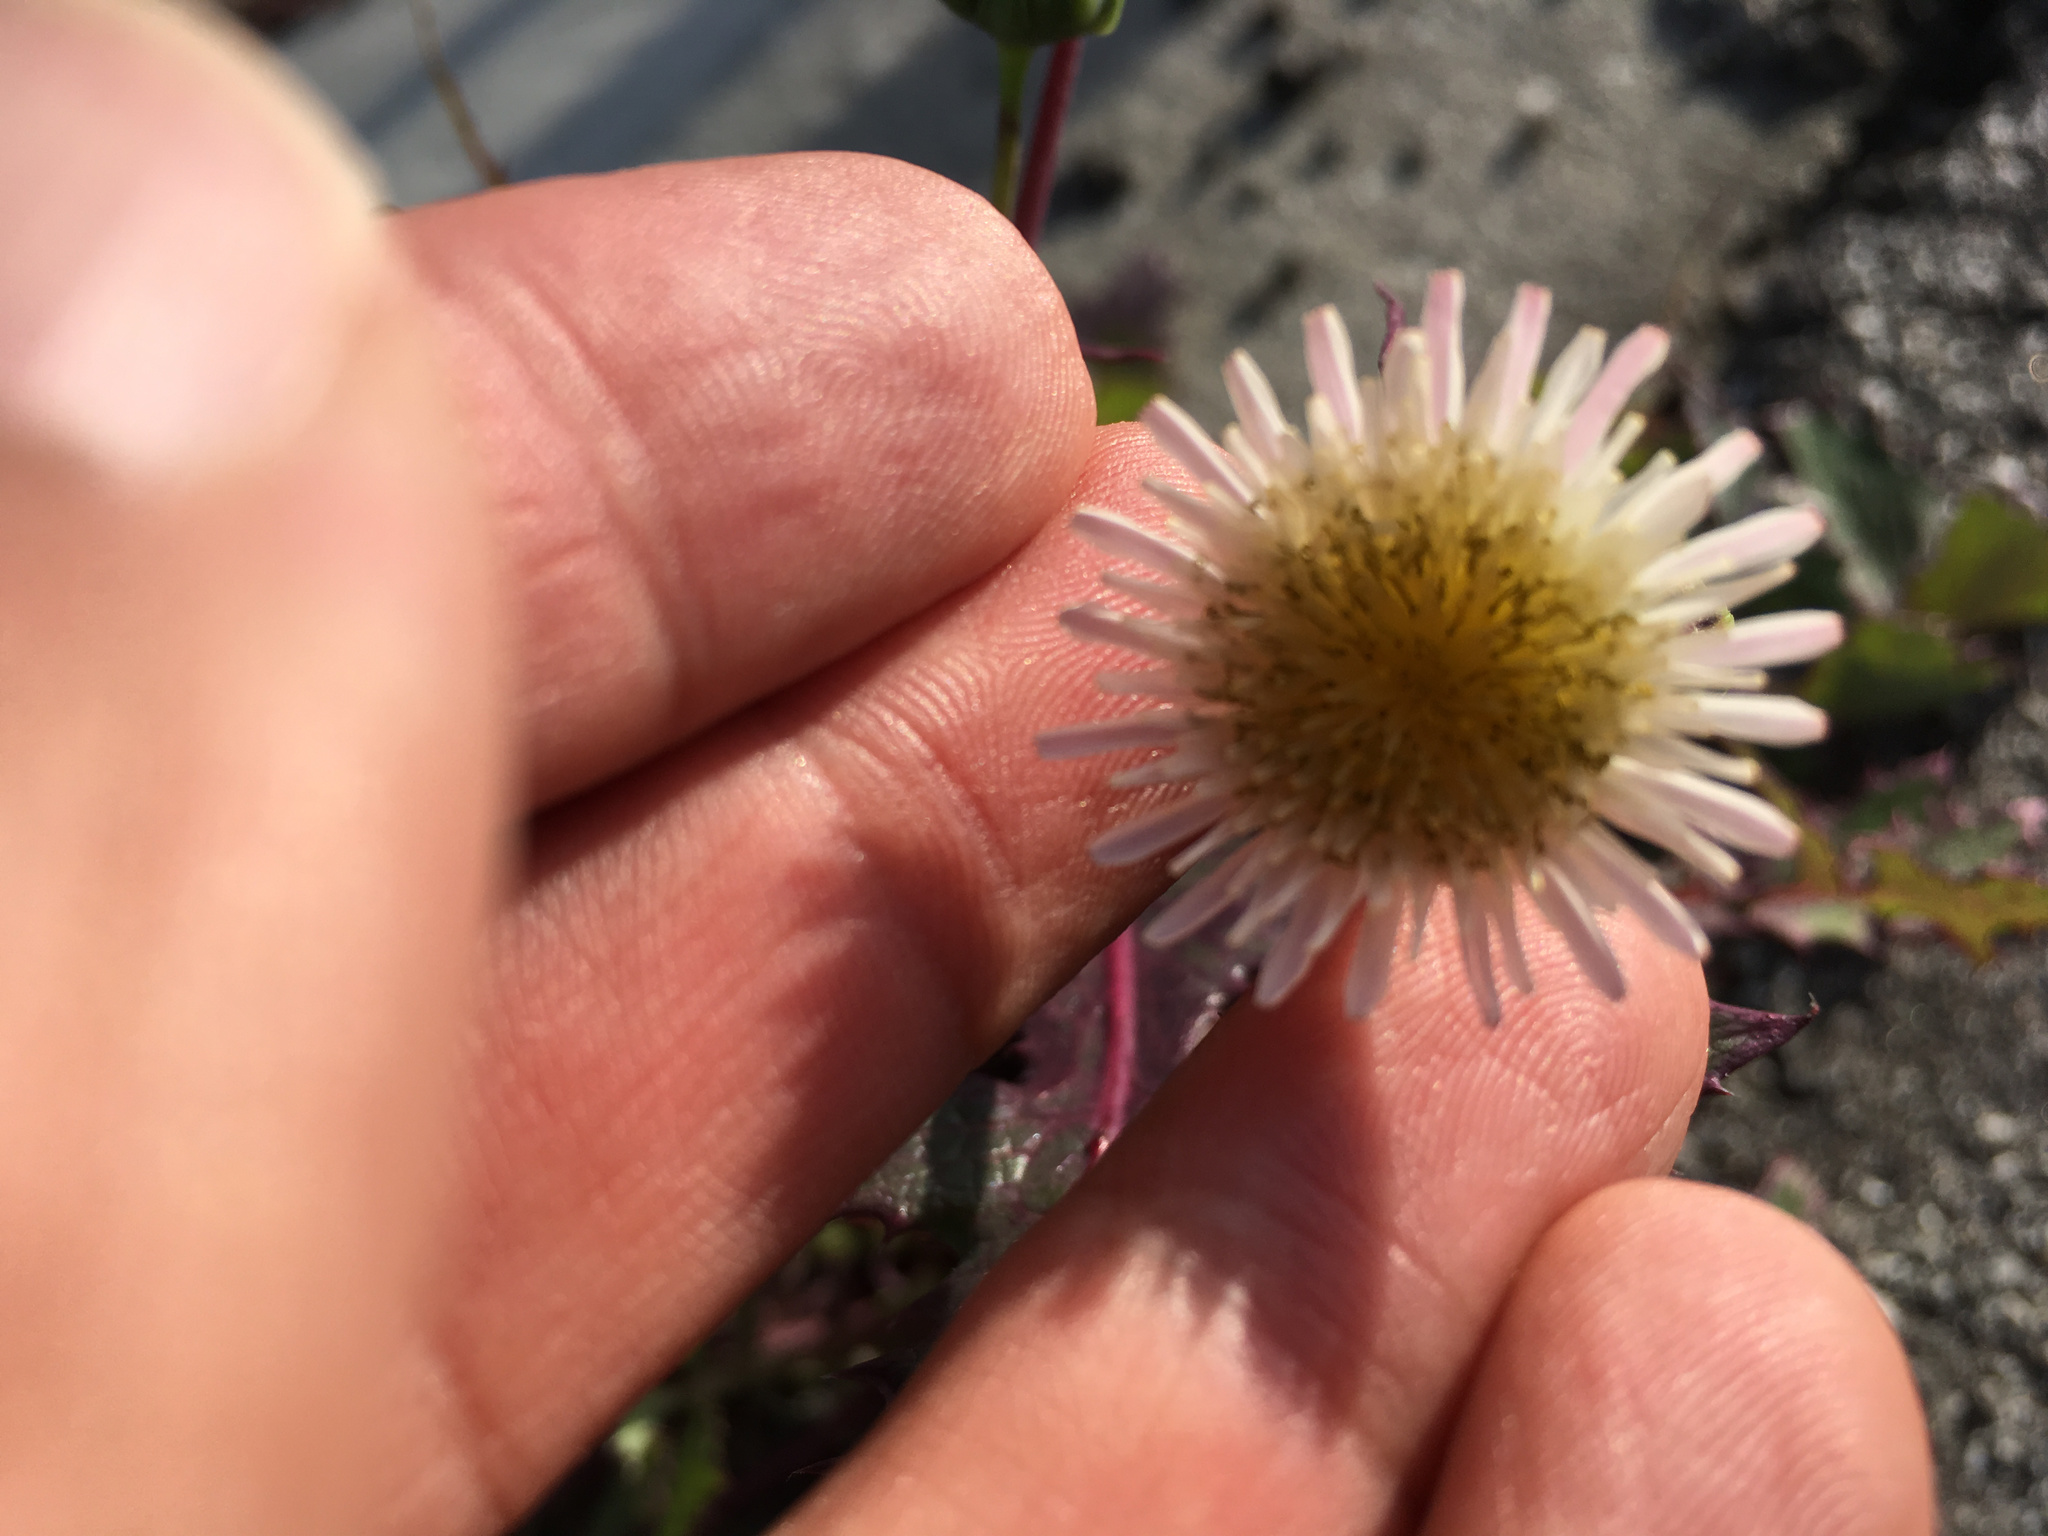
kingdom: Plantae
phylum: Tracheophyta
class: Magnoliopsida
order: Asterales
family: Asteraceae
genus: Sonchus
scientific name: Sonchus oleraceus
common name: Common sowthistle
